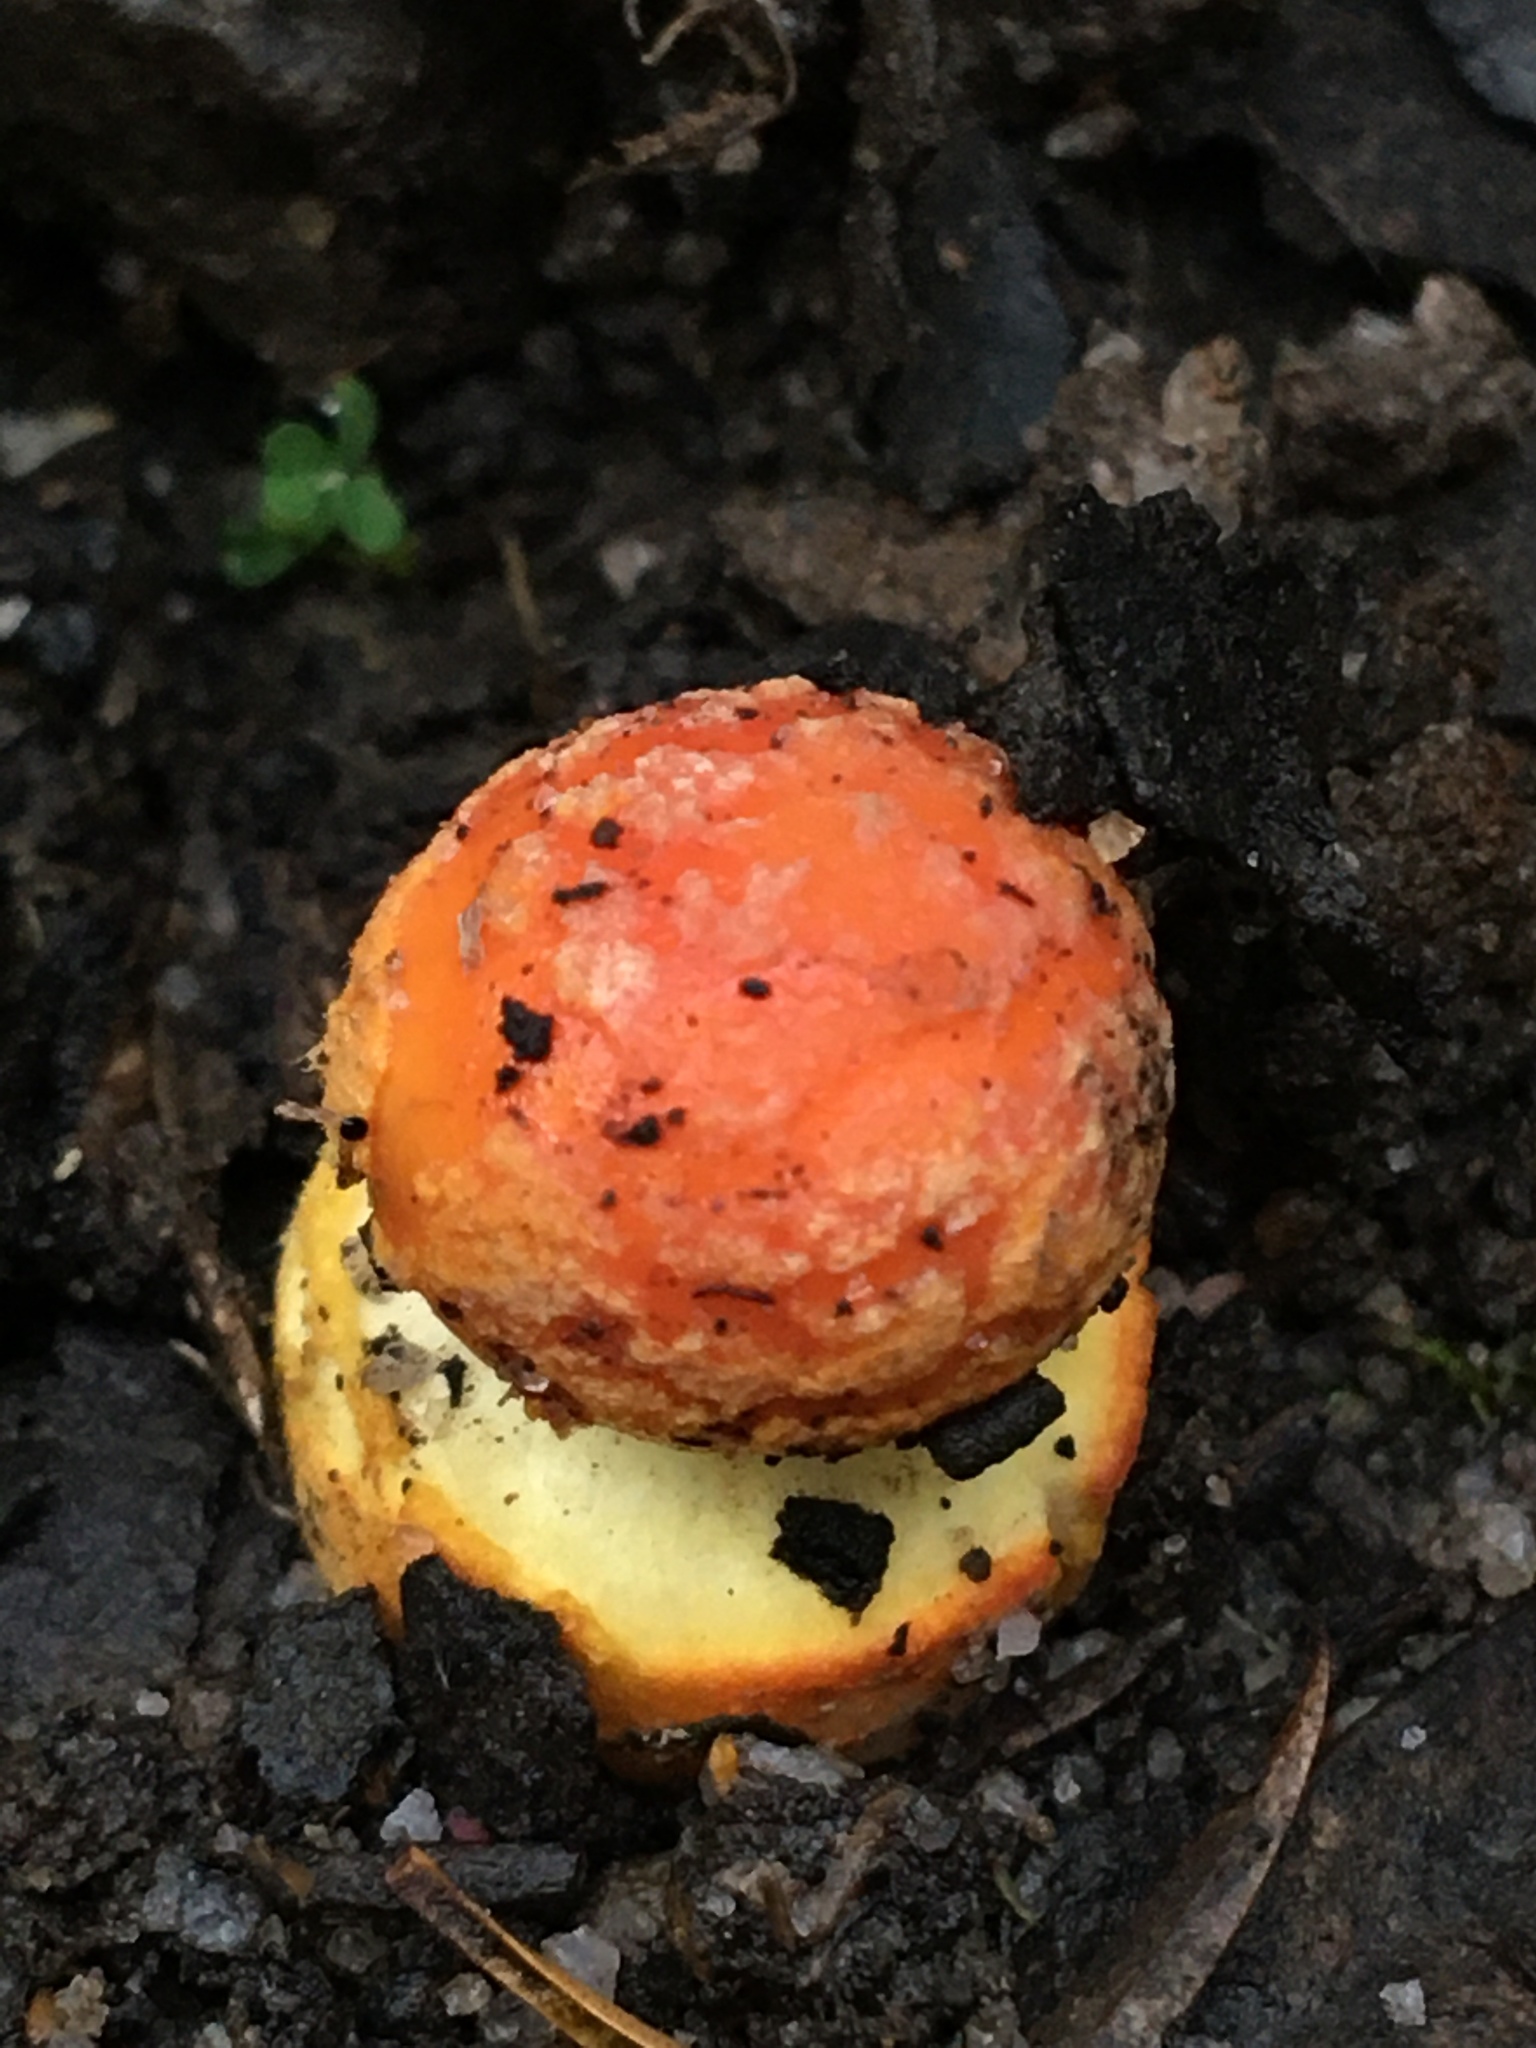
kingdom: Fungi
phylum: Basidiomycota
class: Agaricomycetes
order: Agaricales
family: Amanitaceae
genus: Amanita
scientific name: Amanita xanthocephala
